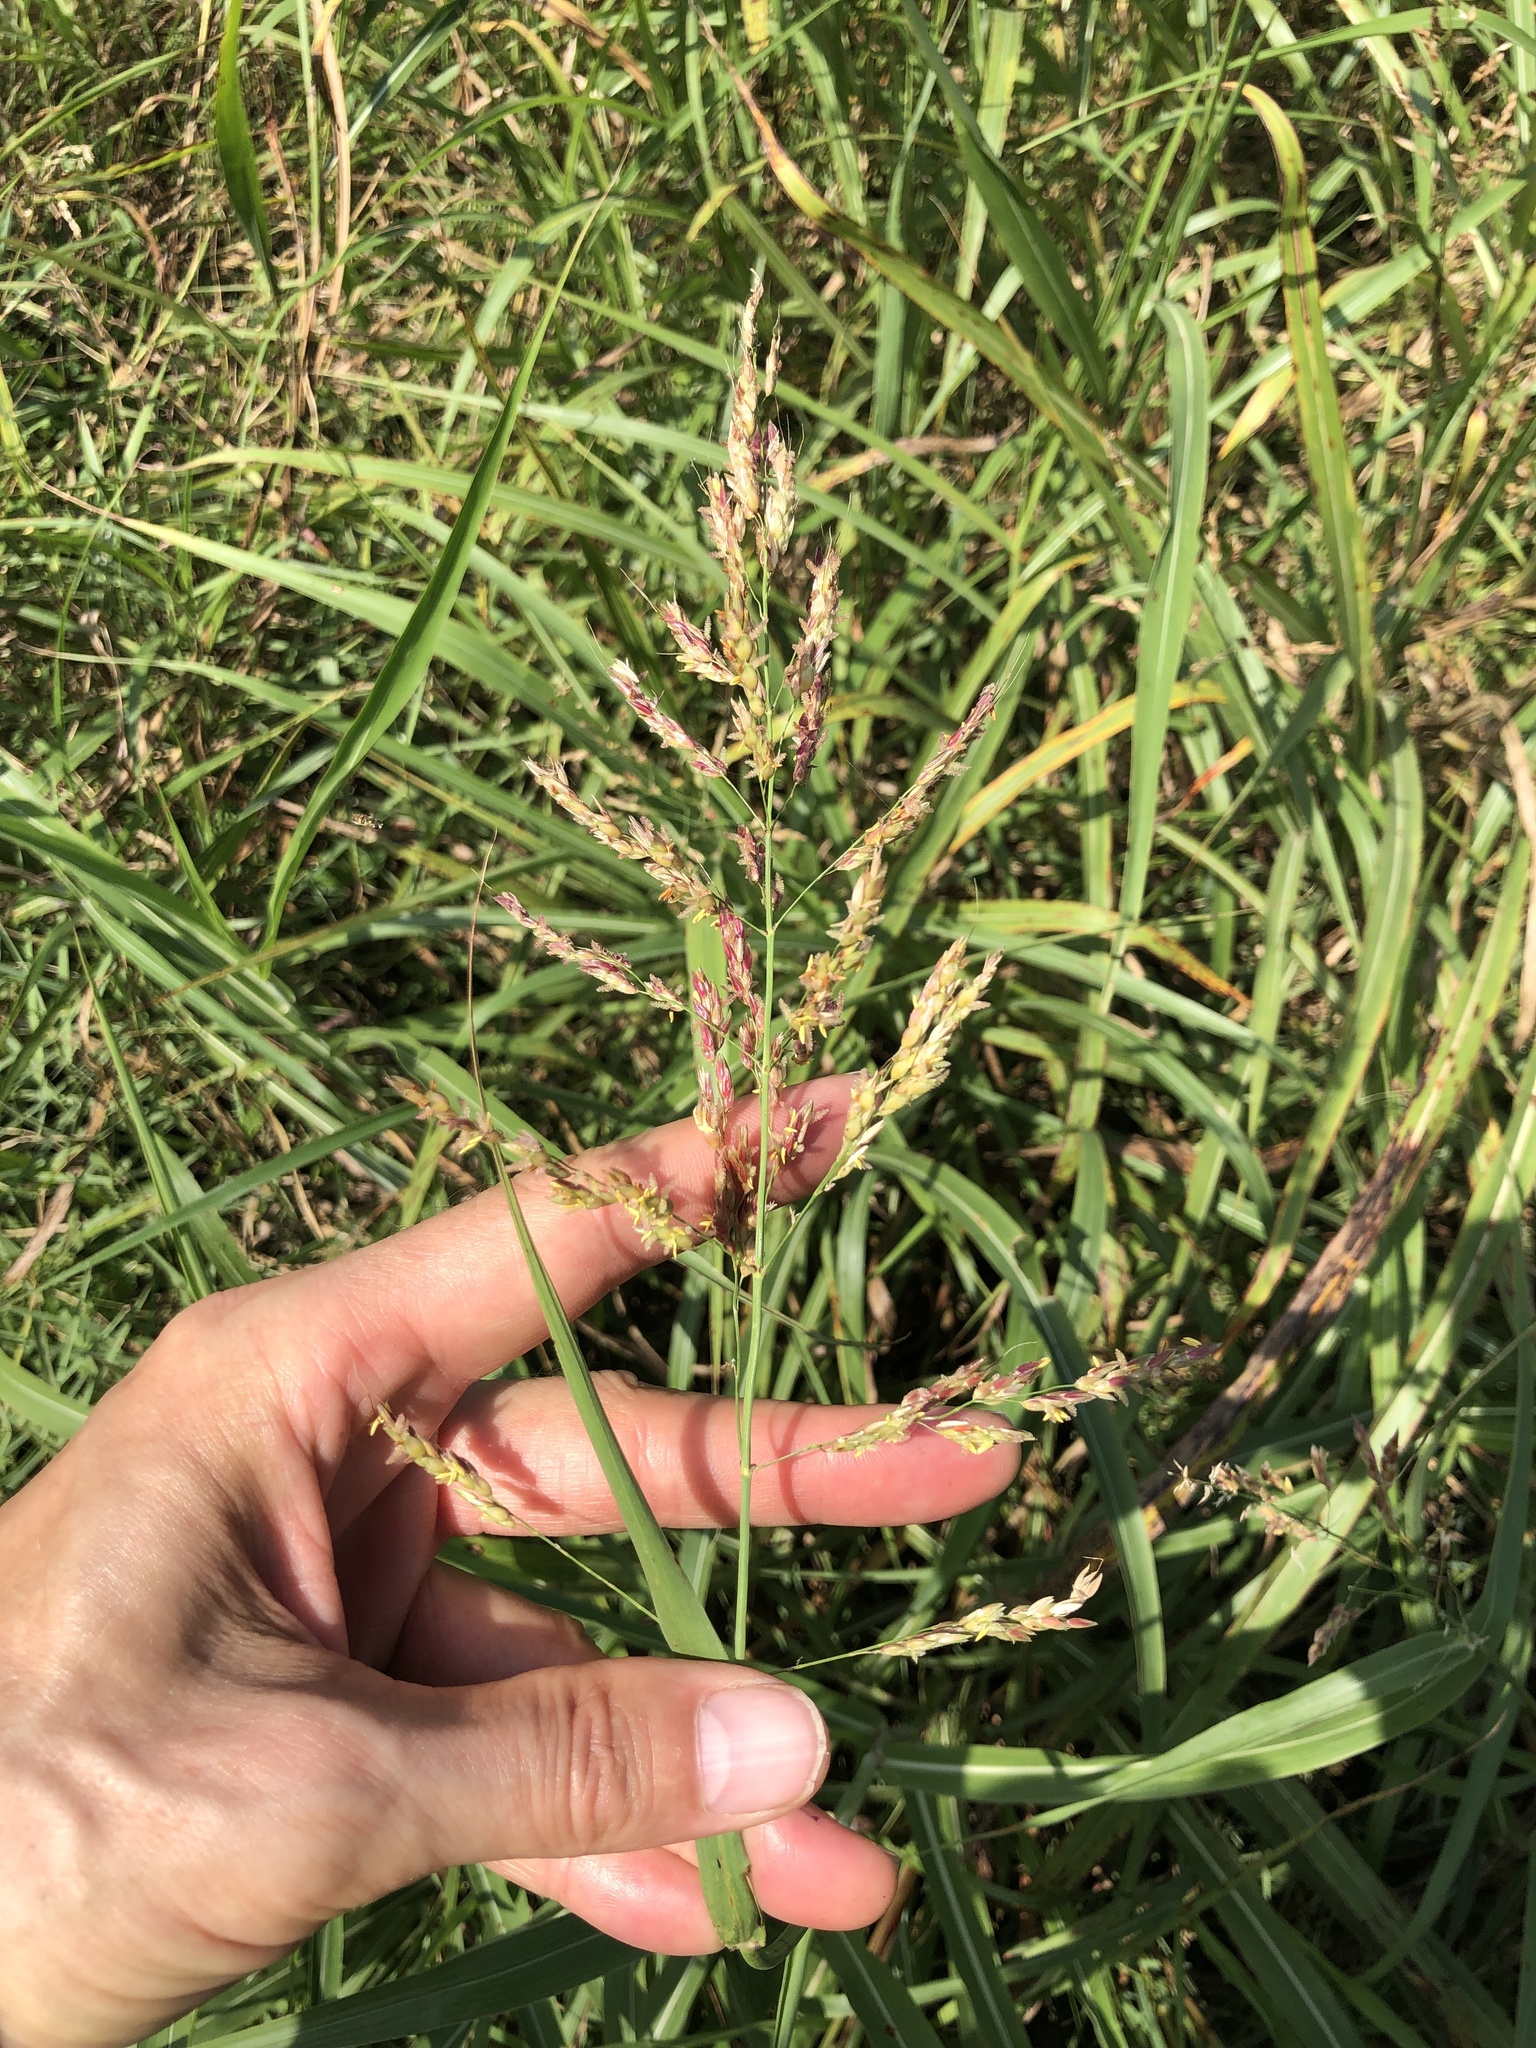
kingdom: Plantae
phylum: Tracheophyta
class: Liliopsida
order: Poales
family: Poaceae
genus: Sorghum
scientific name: Sorghum halepense
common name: Johnson-grass
